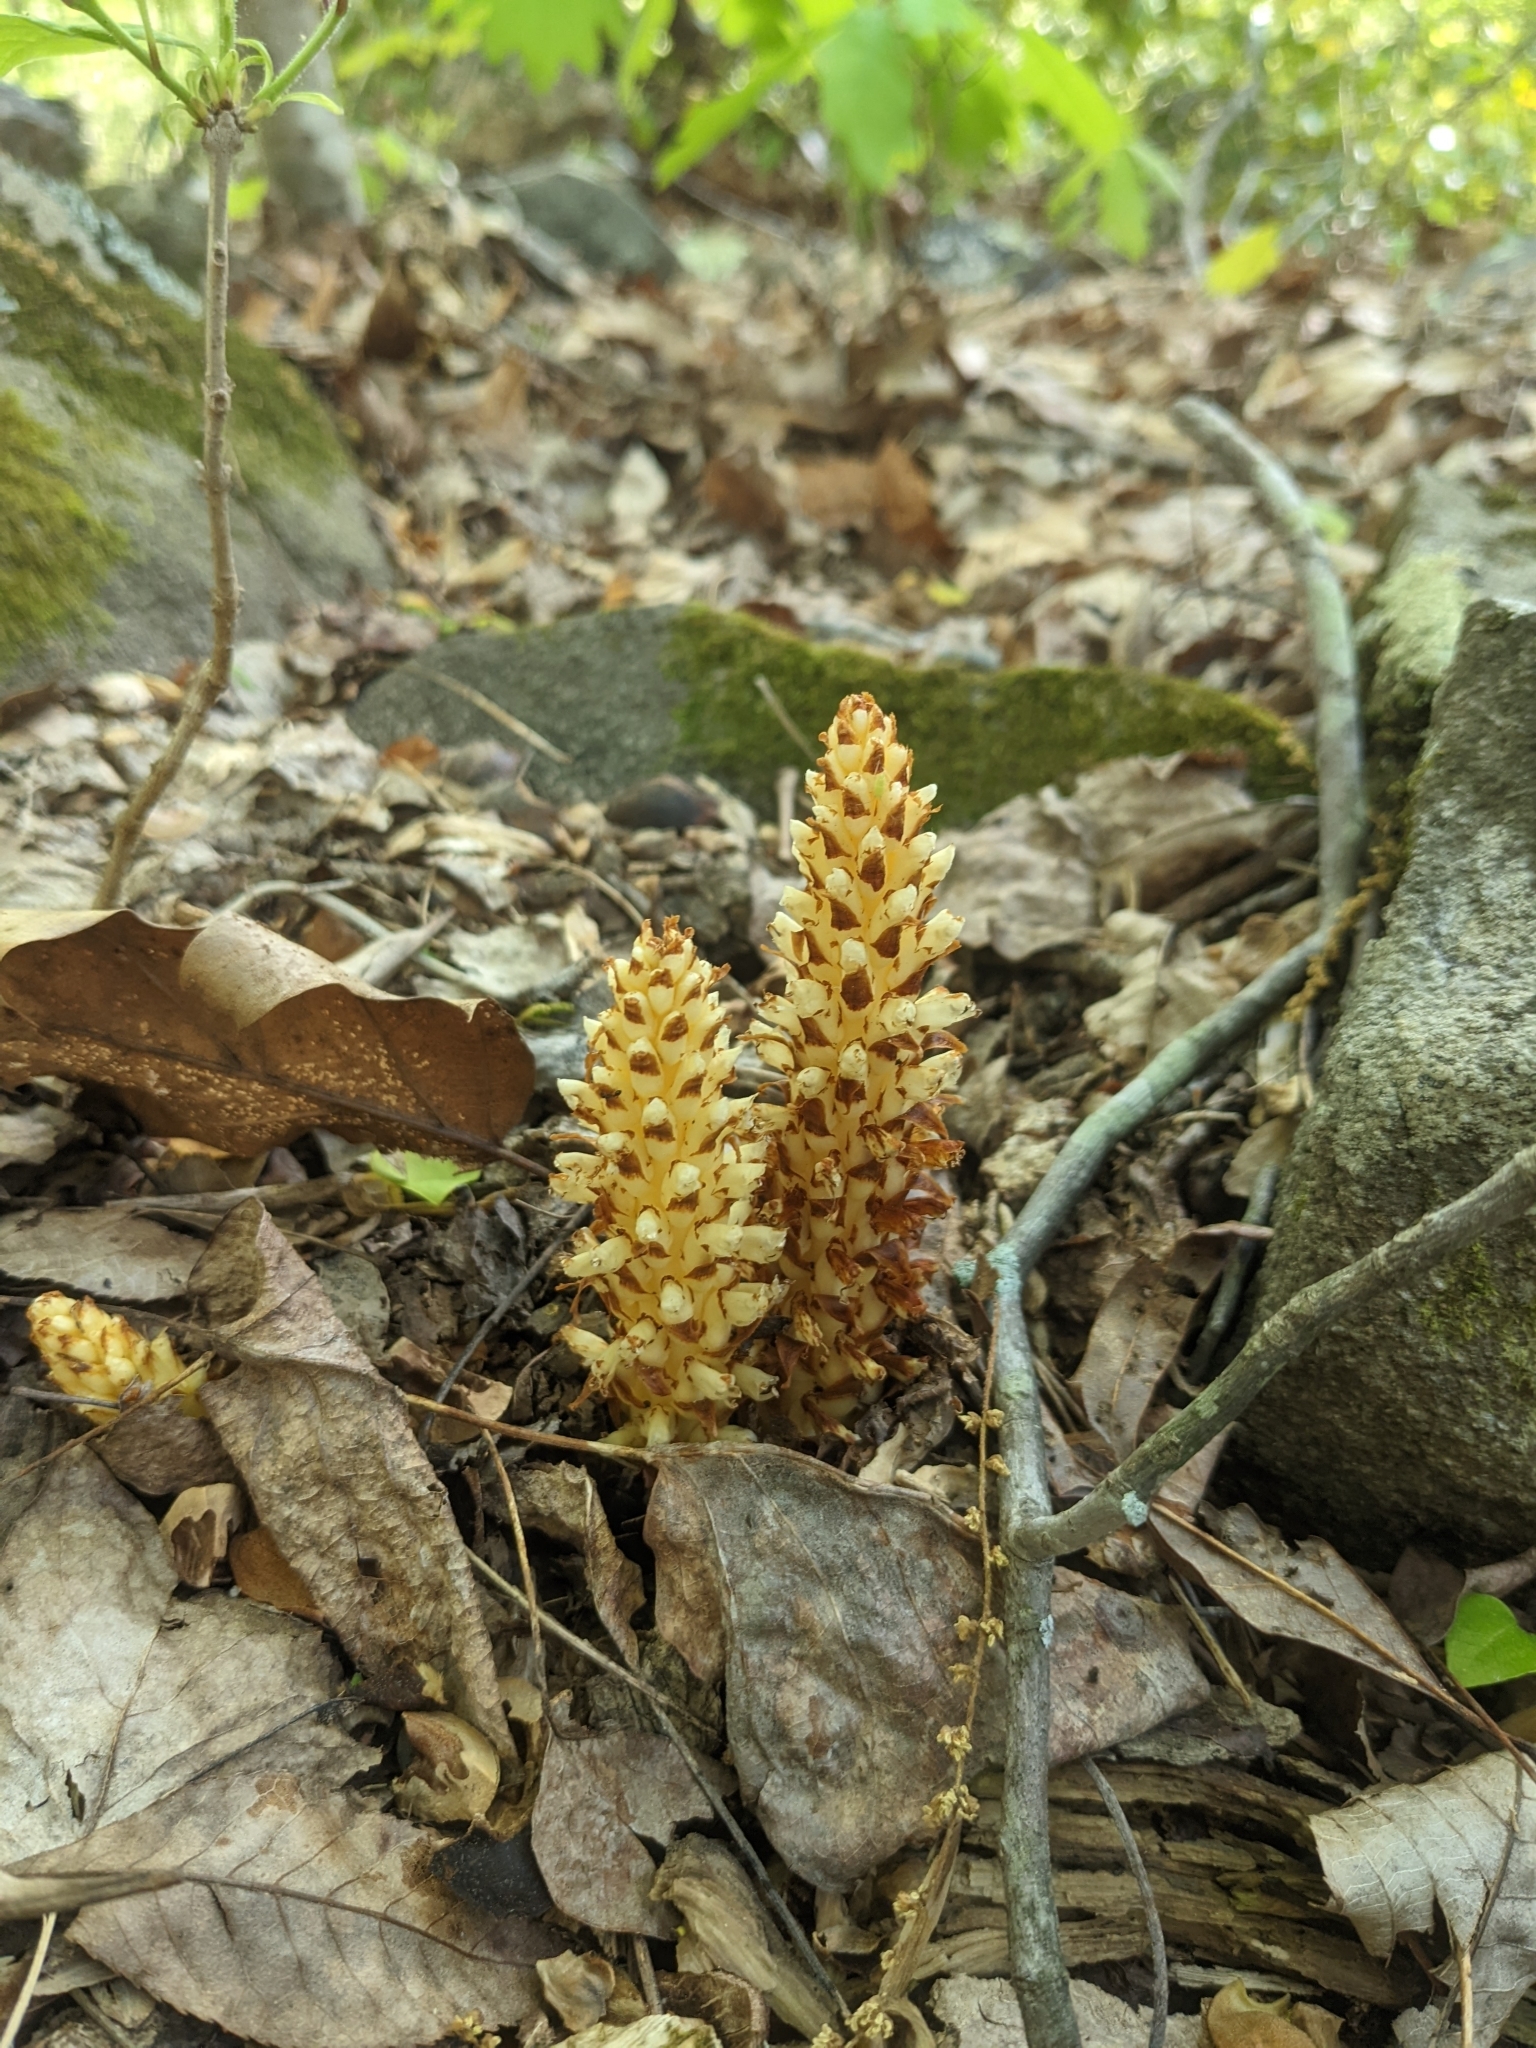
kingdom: Plantae
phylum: Tracheophyta
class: Magnoliopsida
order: Lamiales
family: Orobanchaceae
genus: Conopholis
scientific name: Conopholis americana
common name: American cancer-root
